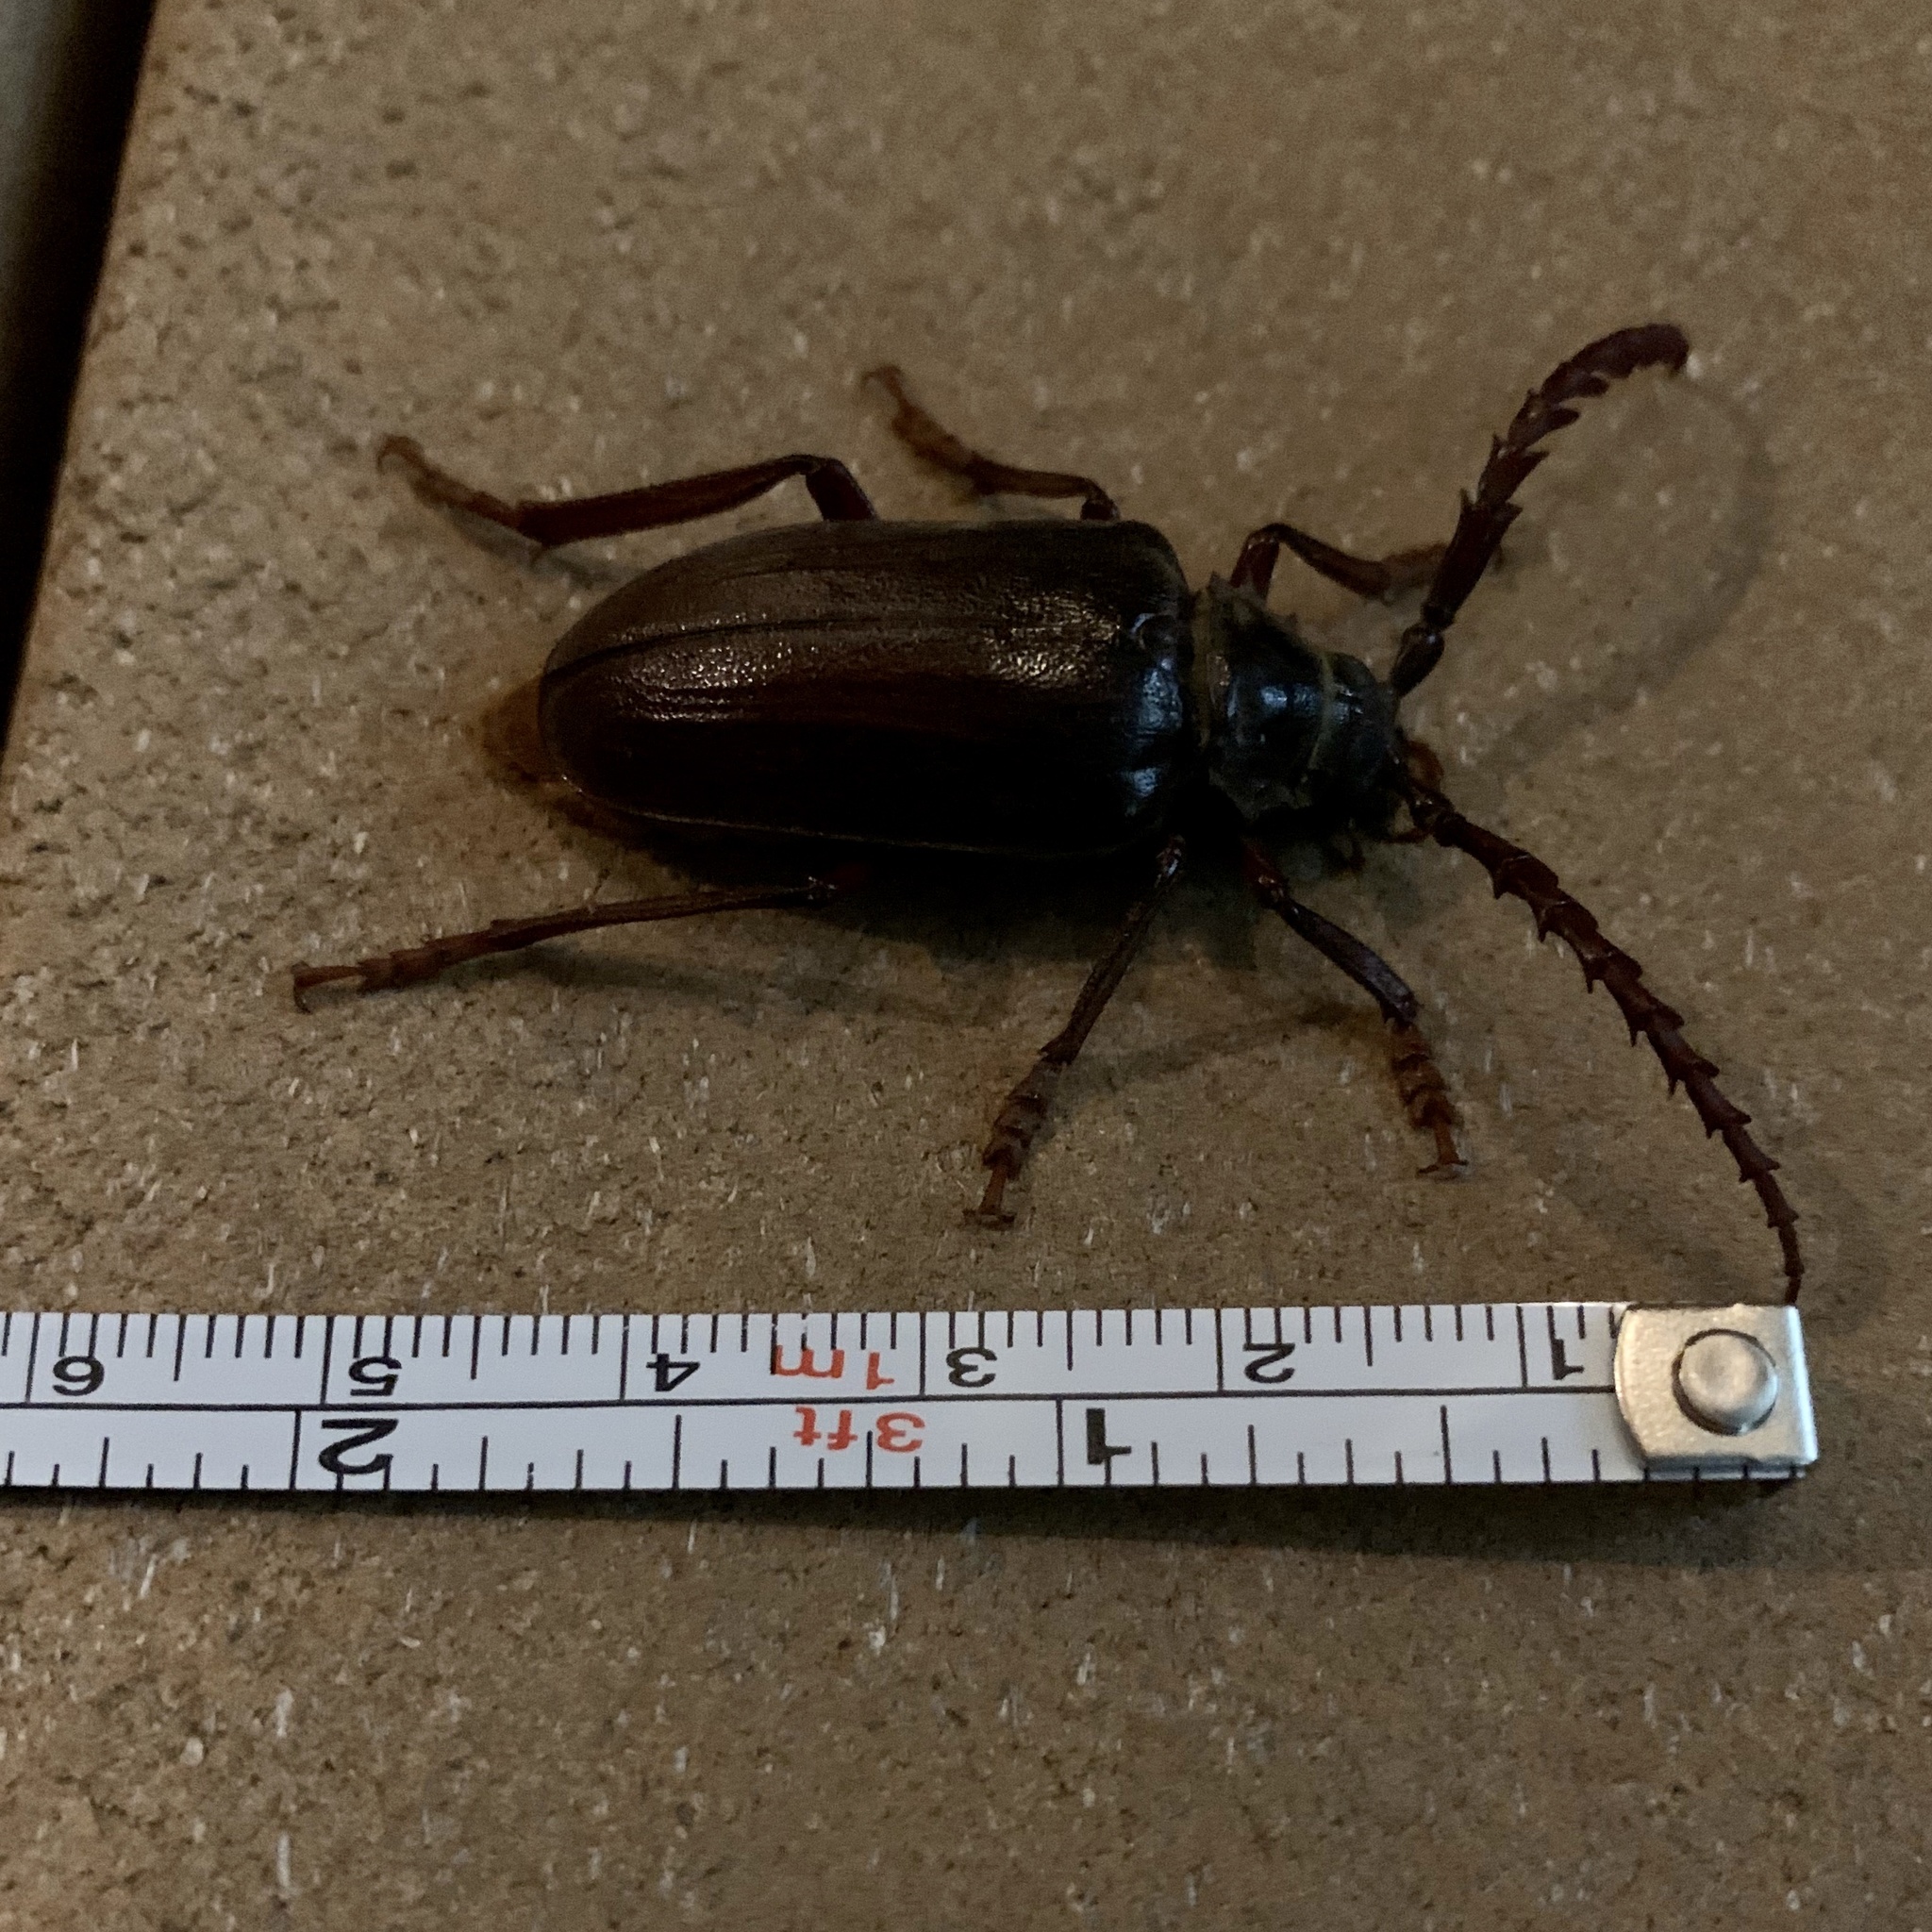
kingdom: Animalia
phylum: Arthropoda
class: Insecta
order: Coleoptera
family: Cerambycidae
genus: Prionus
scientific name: Prionus californicus
